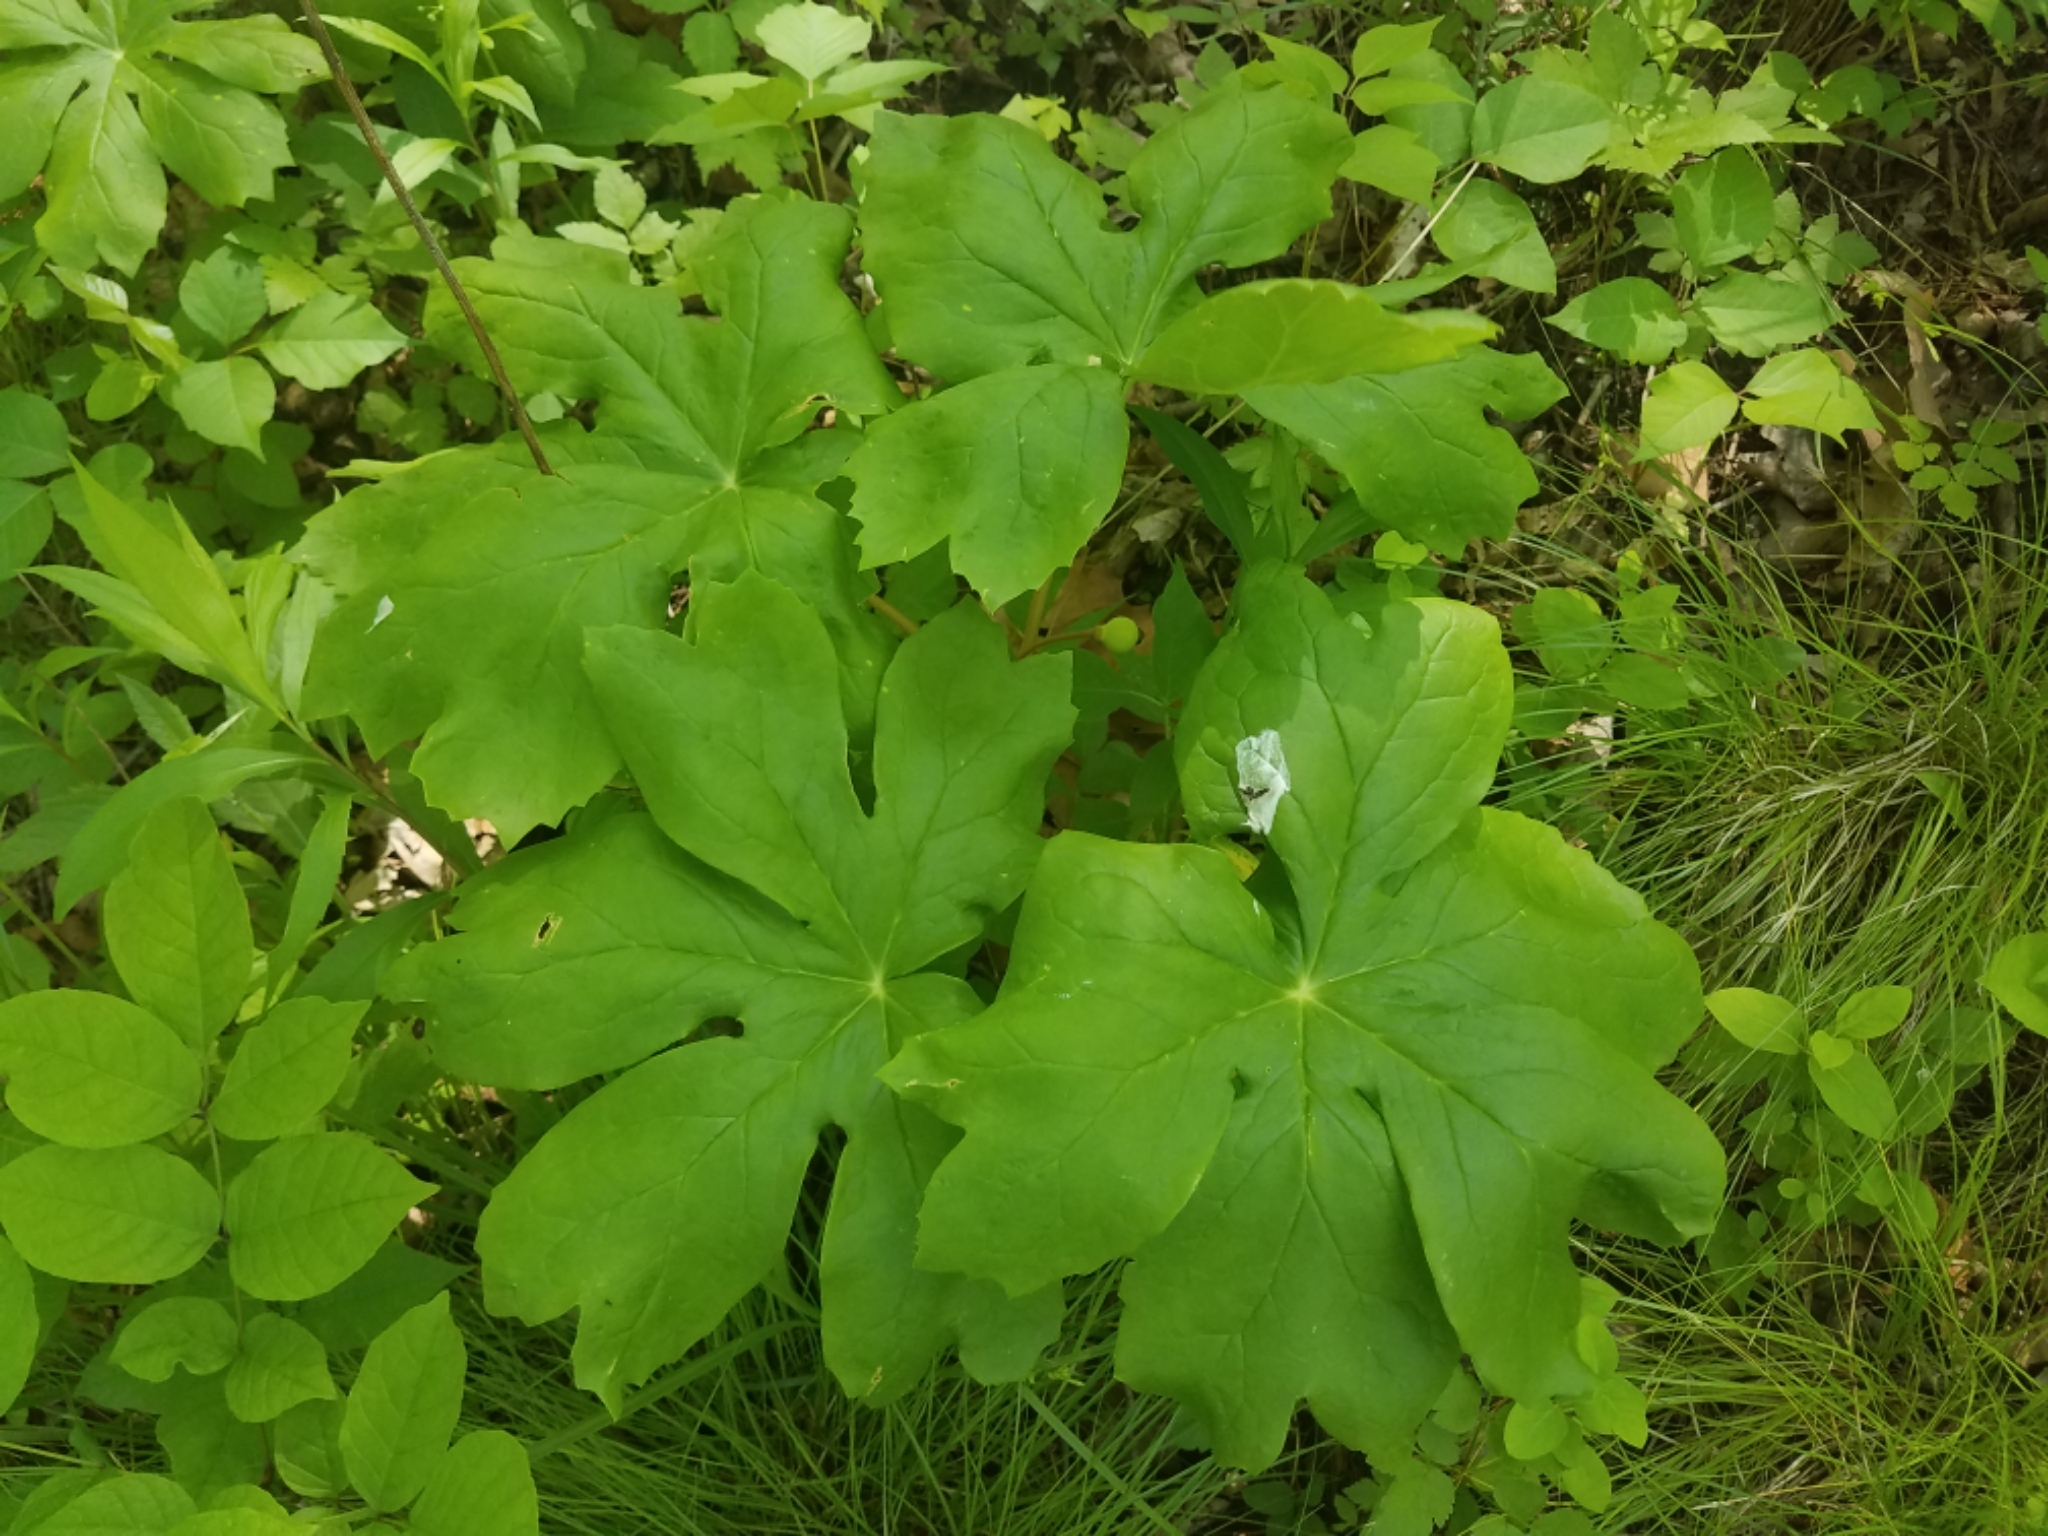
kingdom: Plantae
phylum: Tracheophyta
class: Magnoliopsida
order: Ranunculales
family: Berberidaceae
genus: Podophyllum
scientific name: Podophyllum peltatum
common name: Wild mandrake
